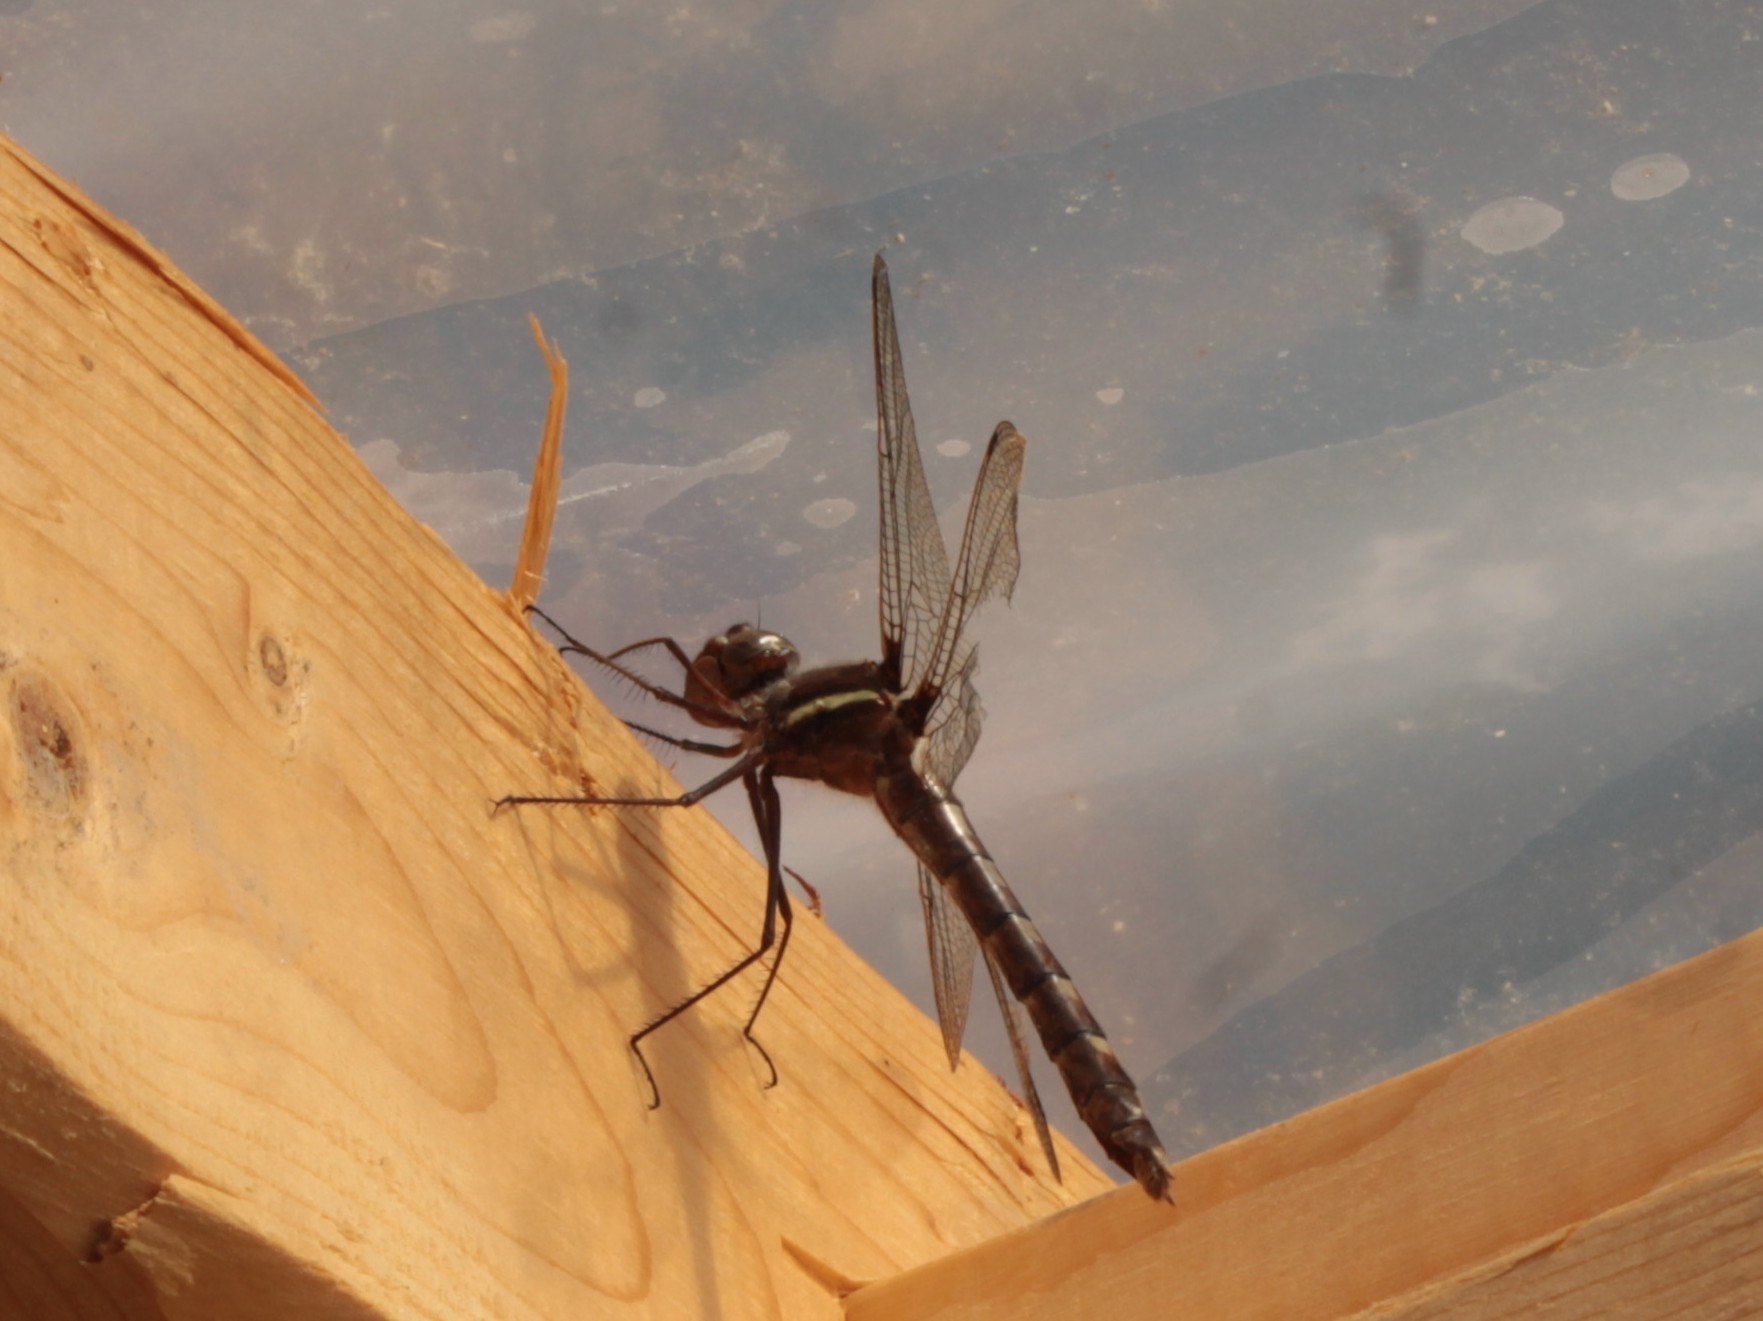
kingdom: Animalia
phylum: Arthropoda
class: Insecta
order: Odonata
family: Macromiidae
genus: Didymops
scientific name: Didymops transversa
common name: Stream cruiser
